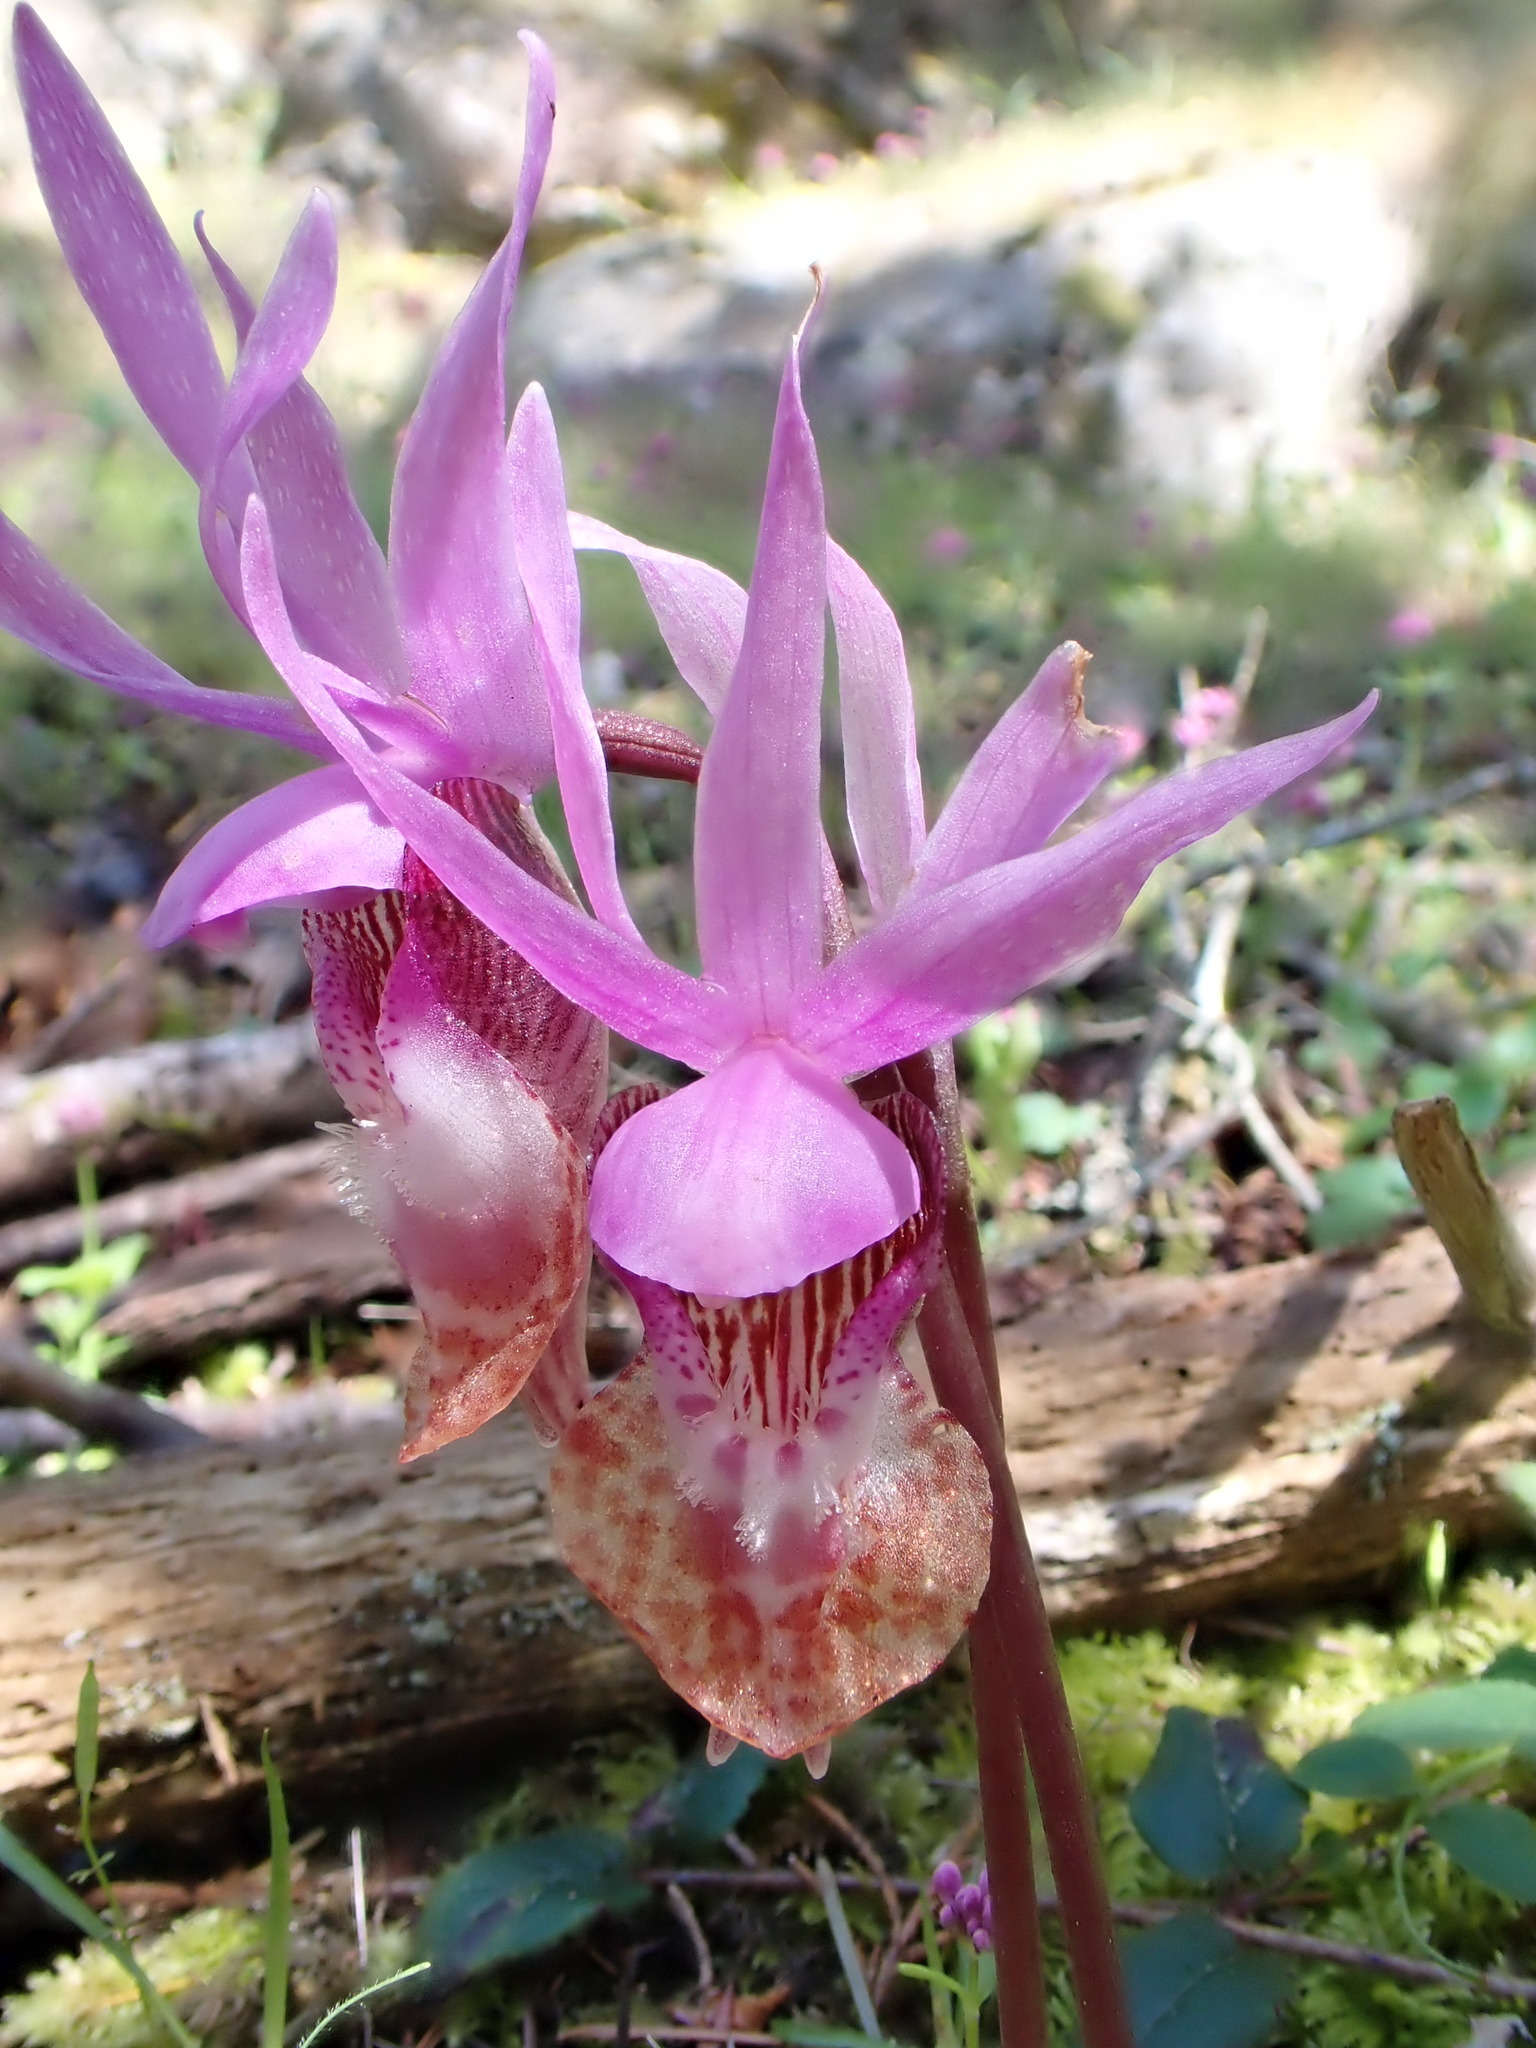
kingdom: Plantae
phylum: Tracheophyta
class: Liliopsida
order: Asparagales
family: Orchidaceae
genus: Calypso
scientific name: Calypso bulbosa
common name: Calypso
